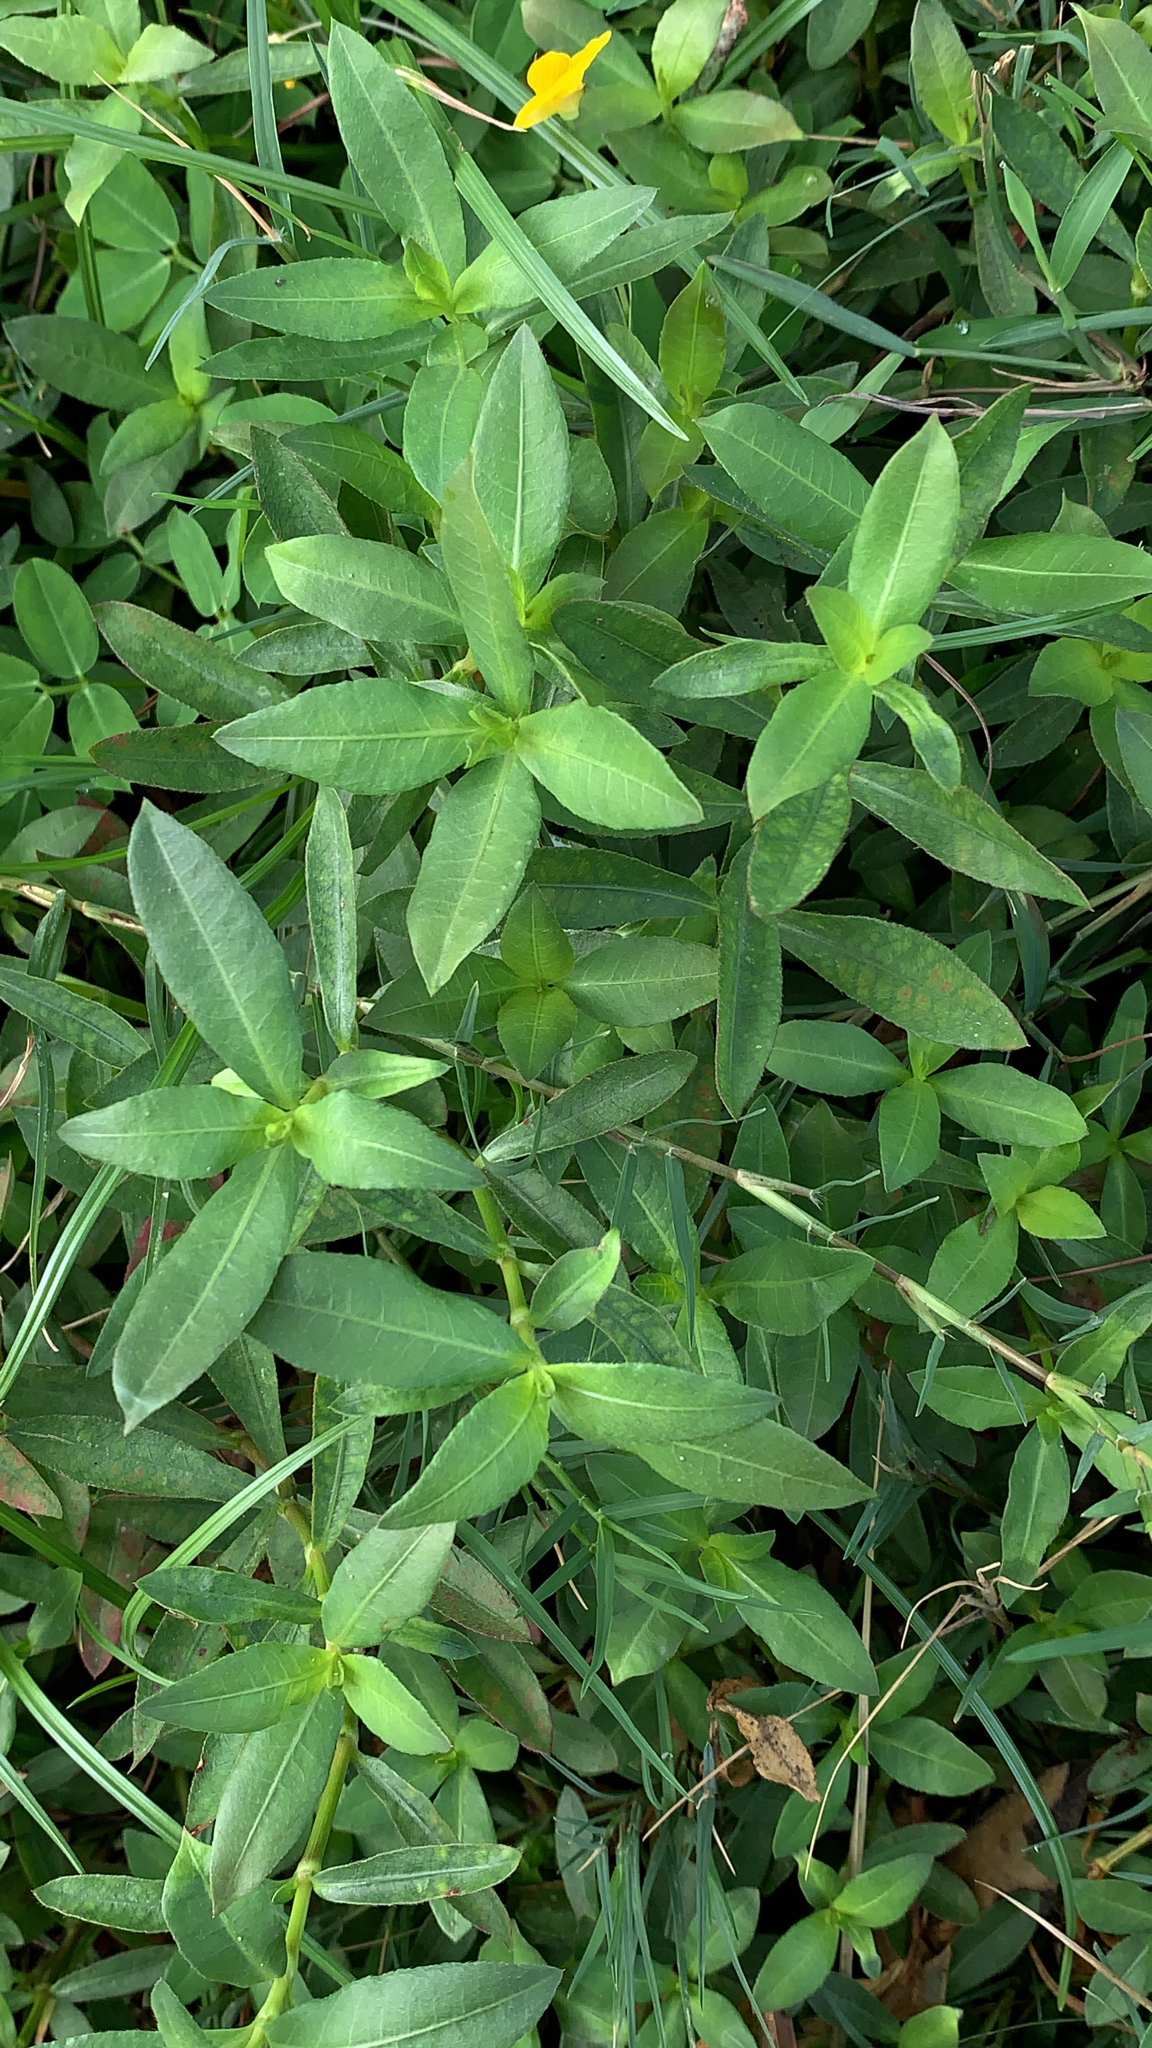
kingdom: Plantae
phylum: Tracheophyta
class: Magnoliopsida
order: Caryophyllales
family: Amaranthaceae
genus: Alternanthera
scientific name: Alternanthera philoxeroides
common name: Alligatorweed
